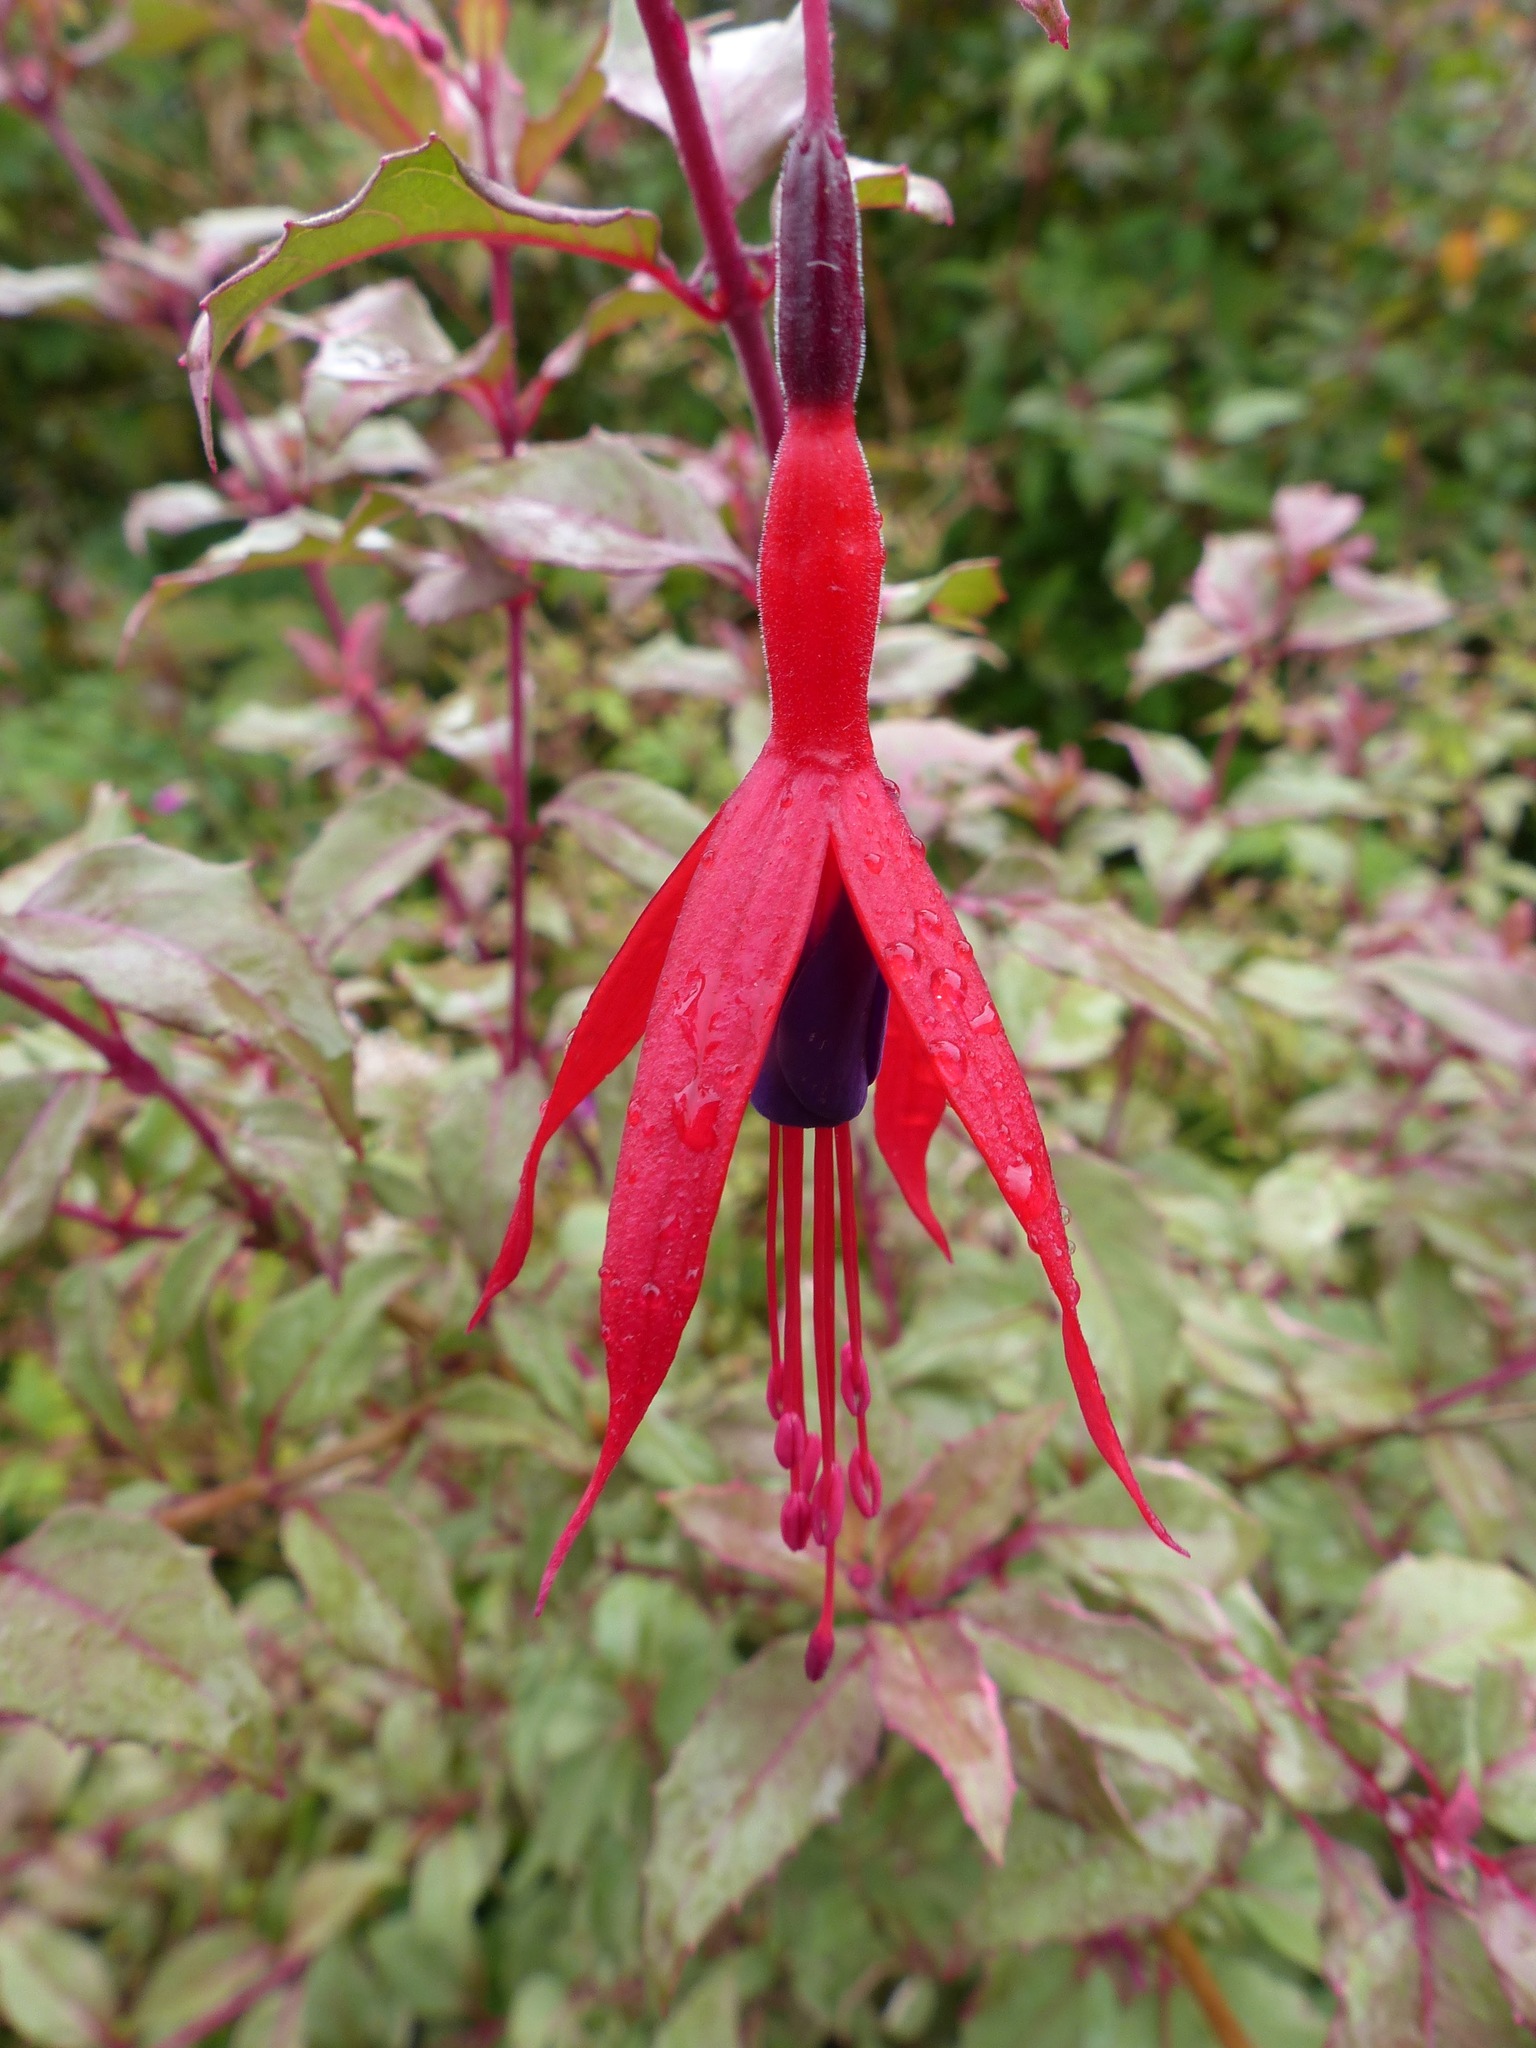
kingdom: Plantae
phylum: Tracheophyta
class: Magnoliopsida
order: Myrtales
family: Onagraceae
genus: Fuchsia
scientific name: Fuchsia
